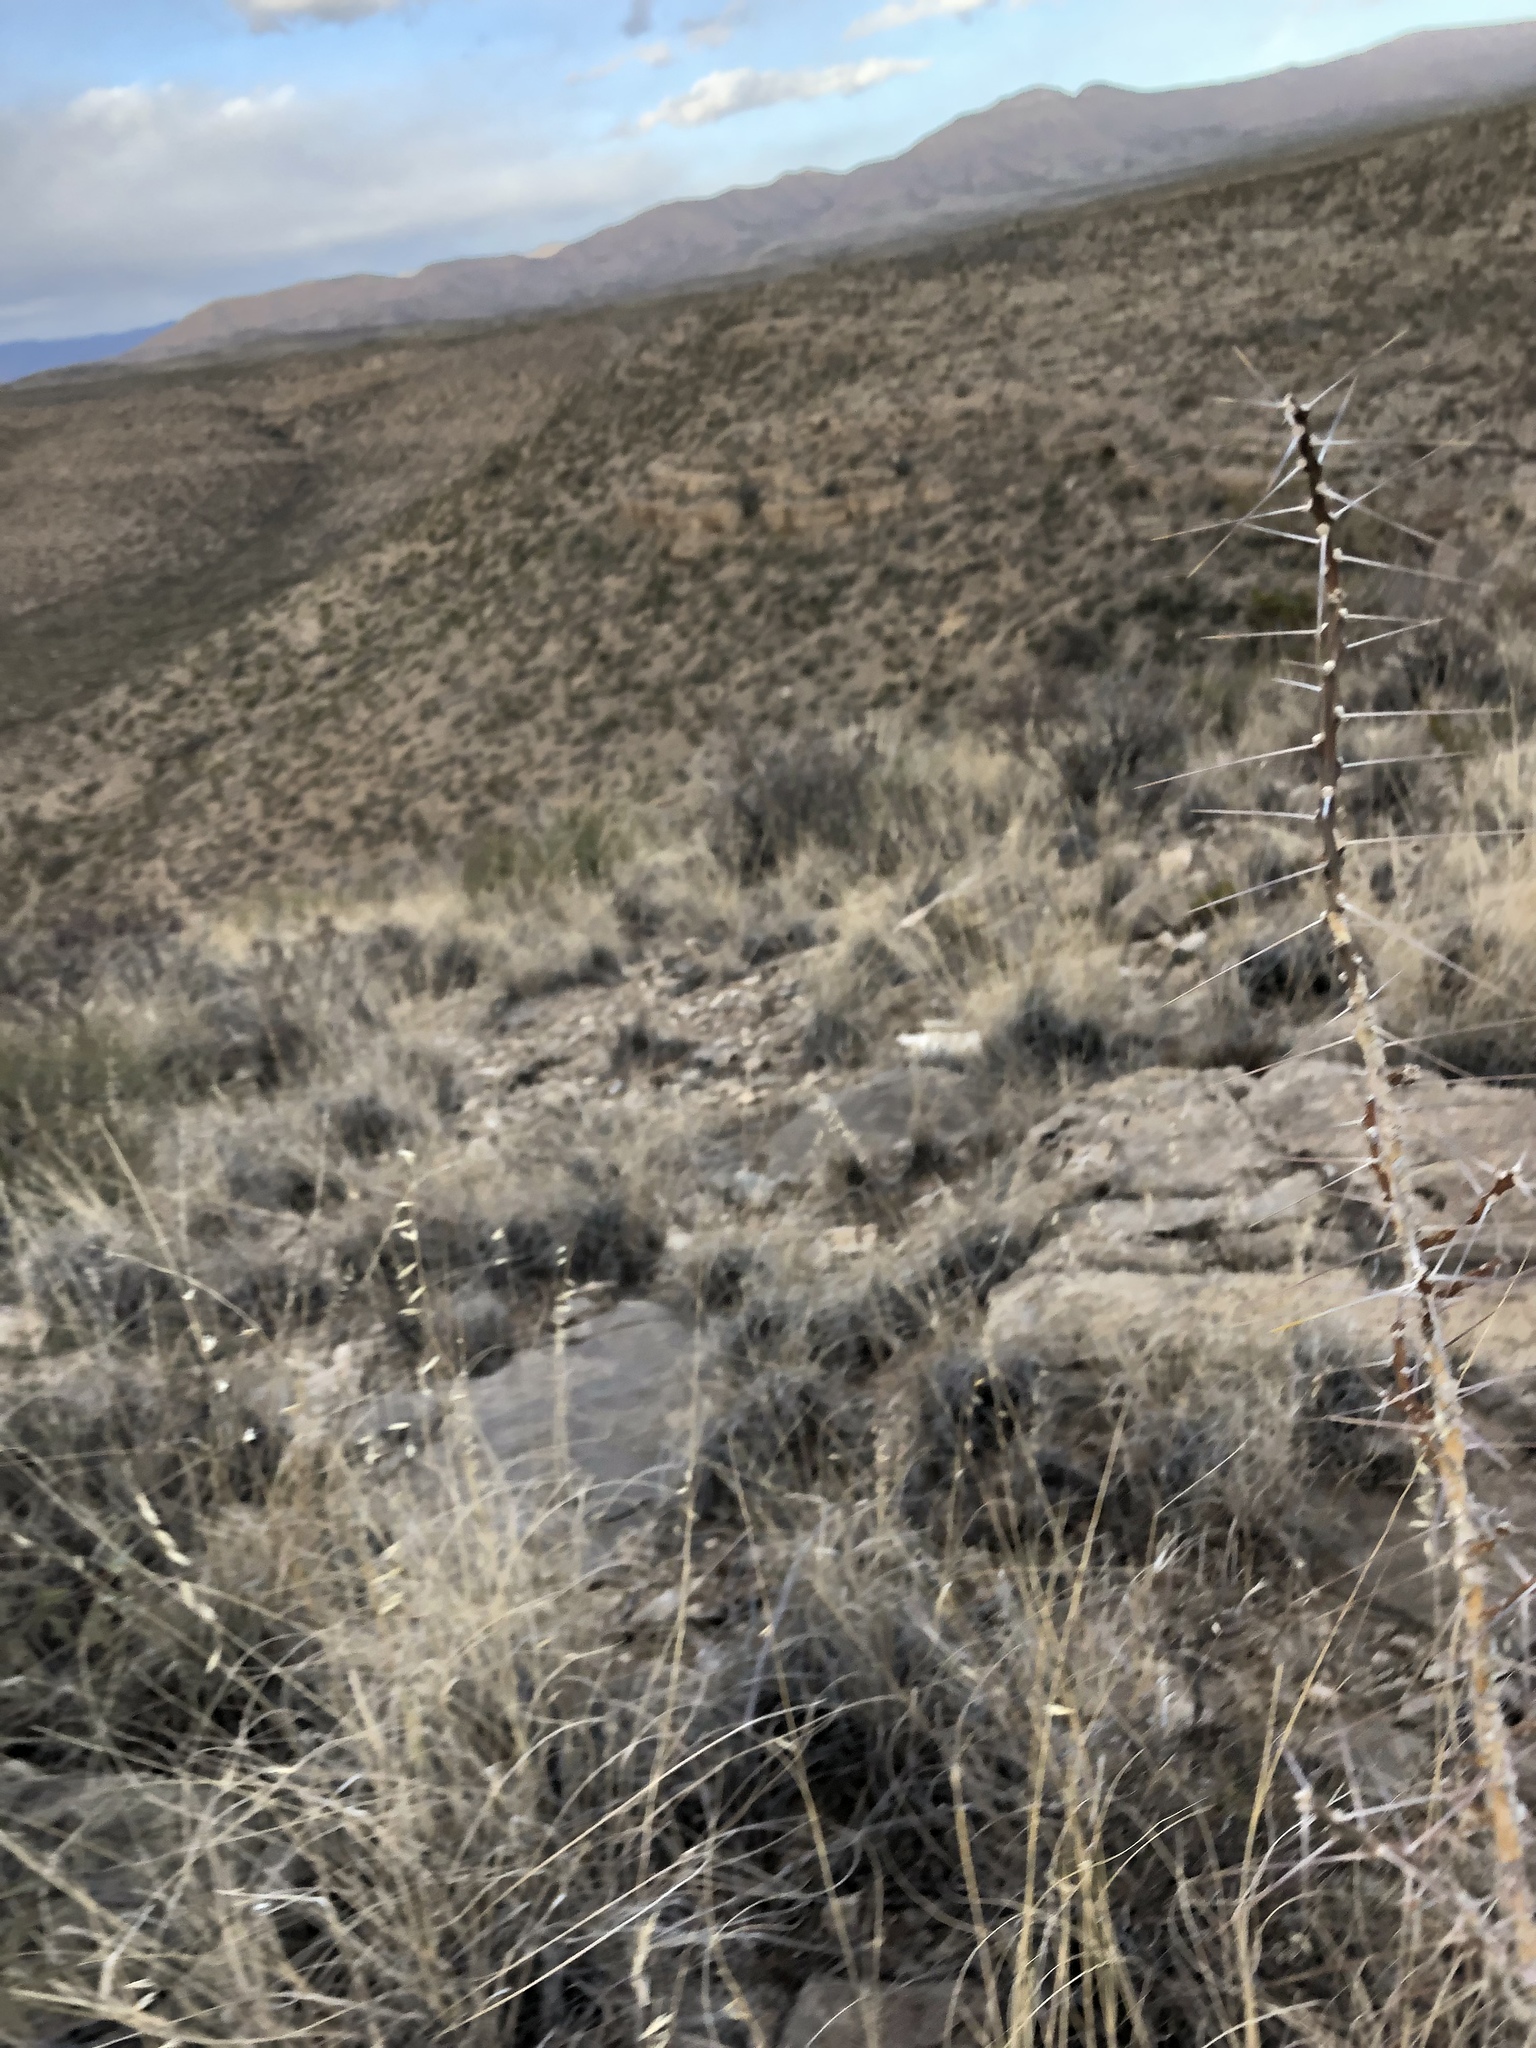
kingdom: Plantae
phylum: Tracheophyta
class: Magnoliopsida
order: Caryophyllales
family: Cactaceae
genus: Cylindropuntia
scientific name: Cylindropuntia leptocaulis
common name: Christmas cactus
